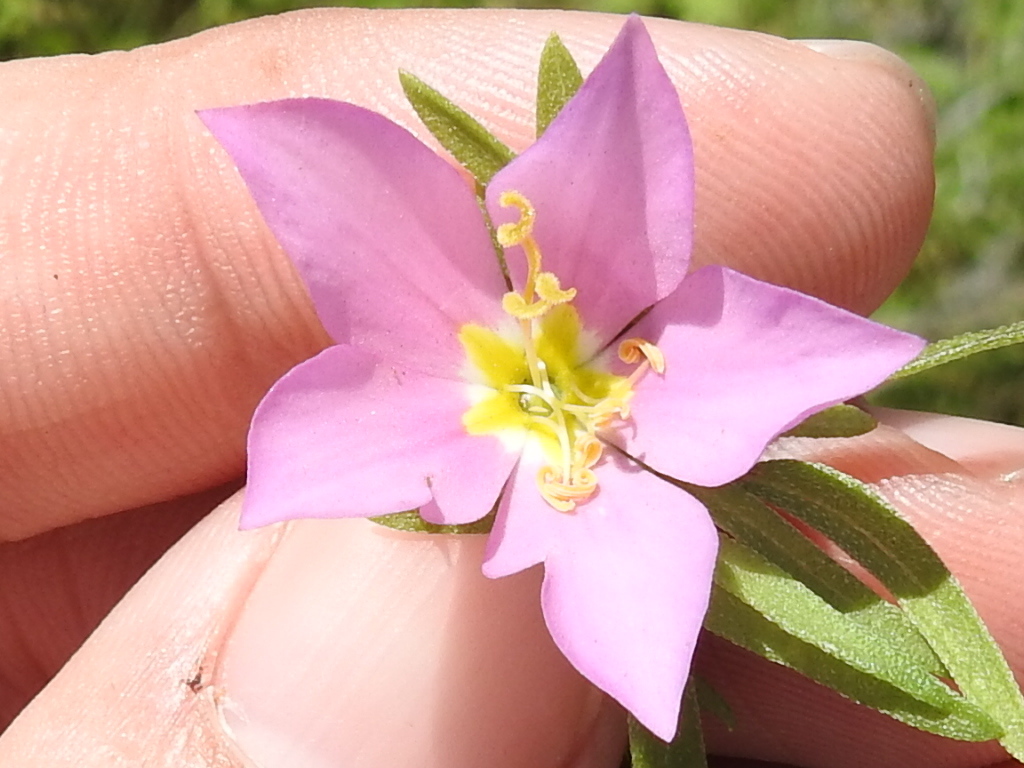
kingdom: Plantae
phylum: Tracheophyta
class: Magnoliopsida
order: Gentianales
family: Gentianaceae
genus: Sabatia
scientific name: Sabatia campestris
